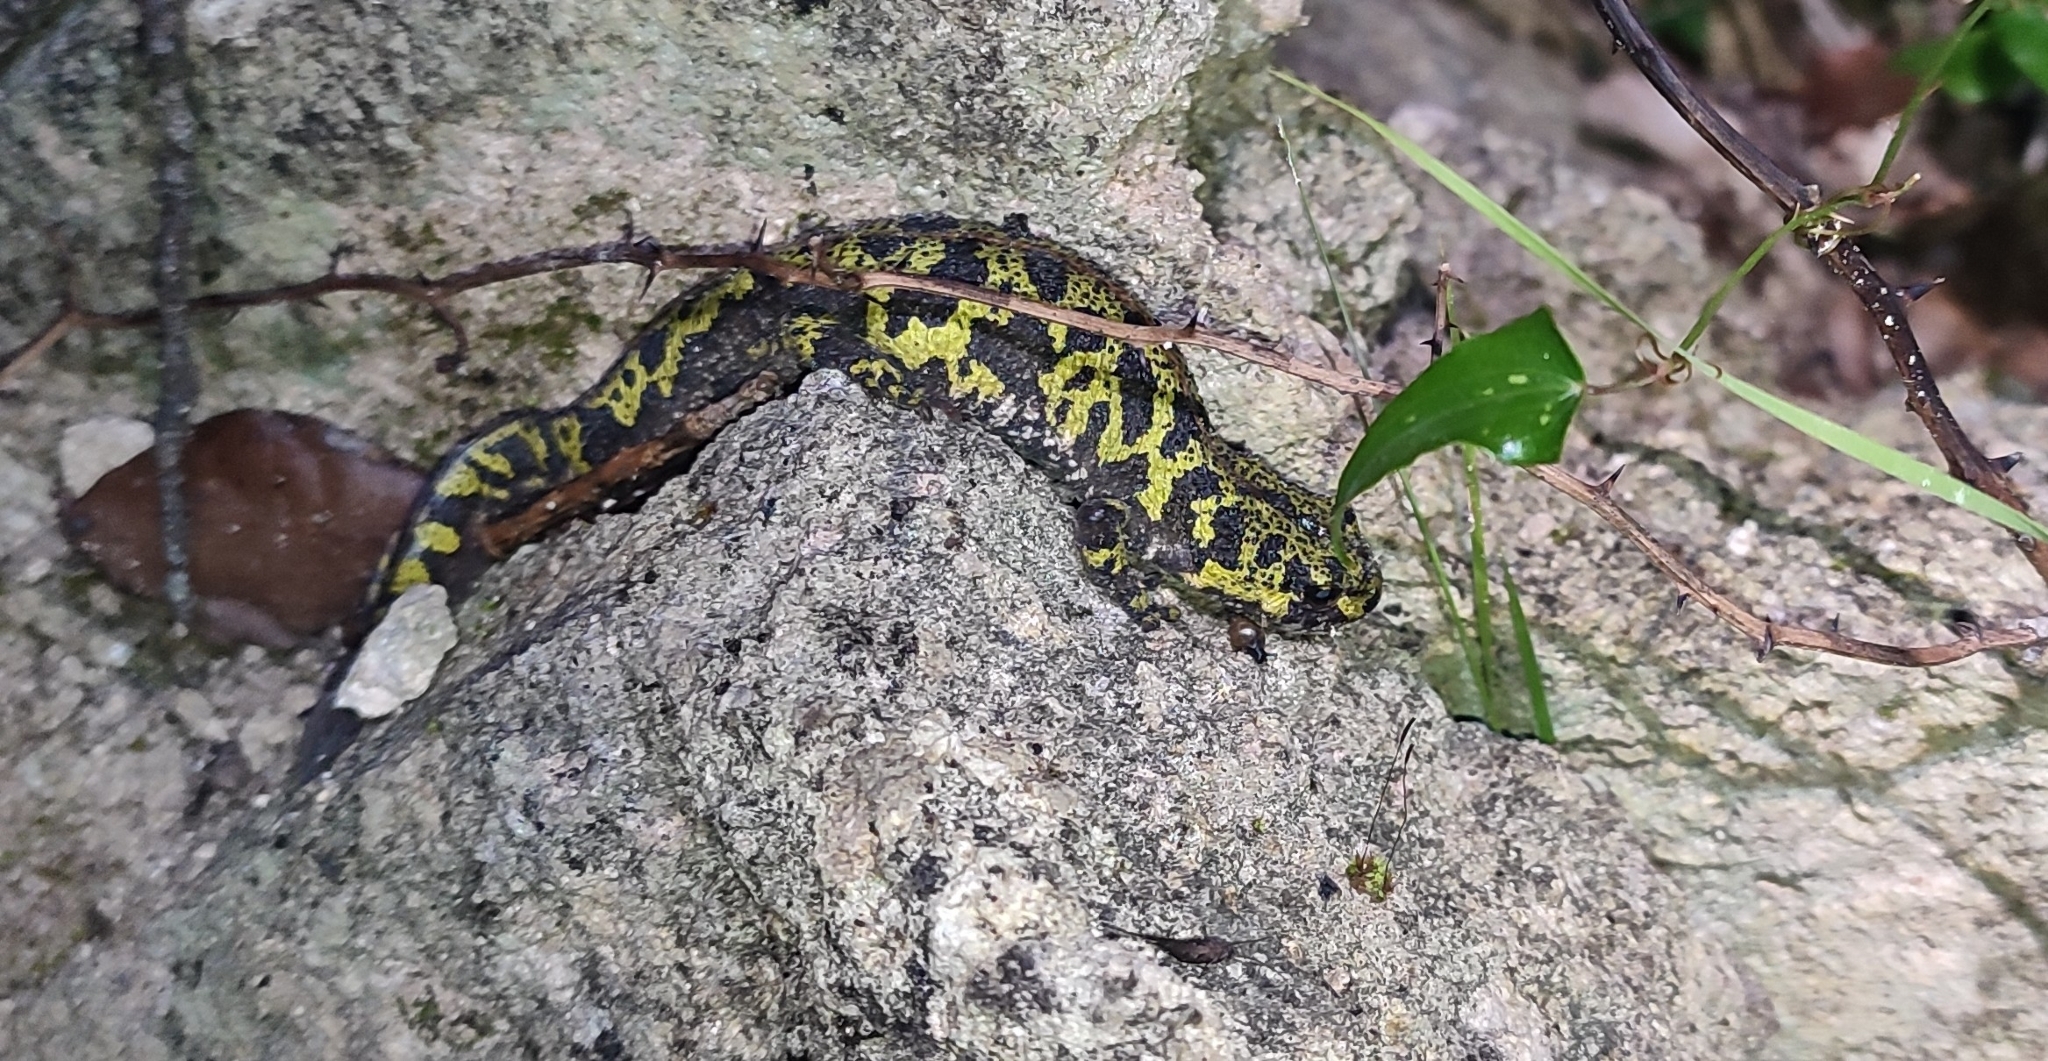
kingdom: Animalia
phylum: Chordata
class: Amphibia
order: Caudata
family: Salamandridae
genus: Triturus
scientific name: Triturus marmoratus
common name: Marbled newt
